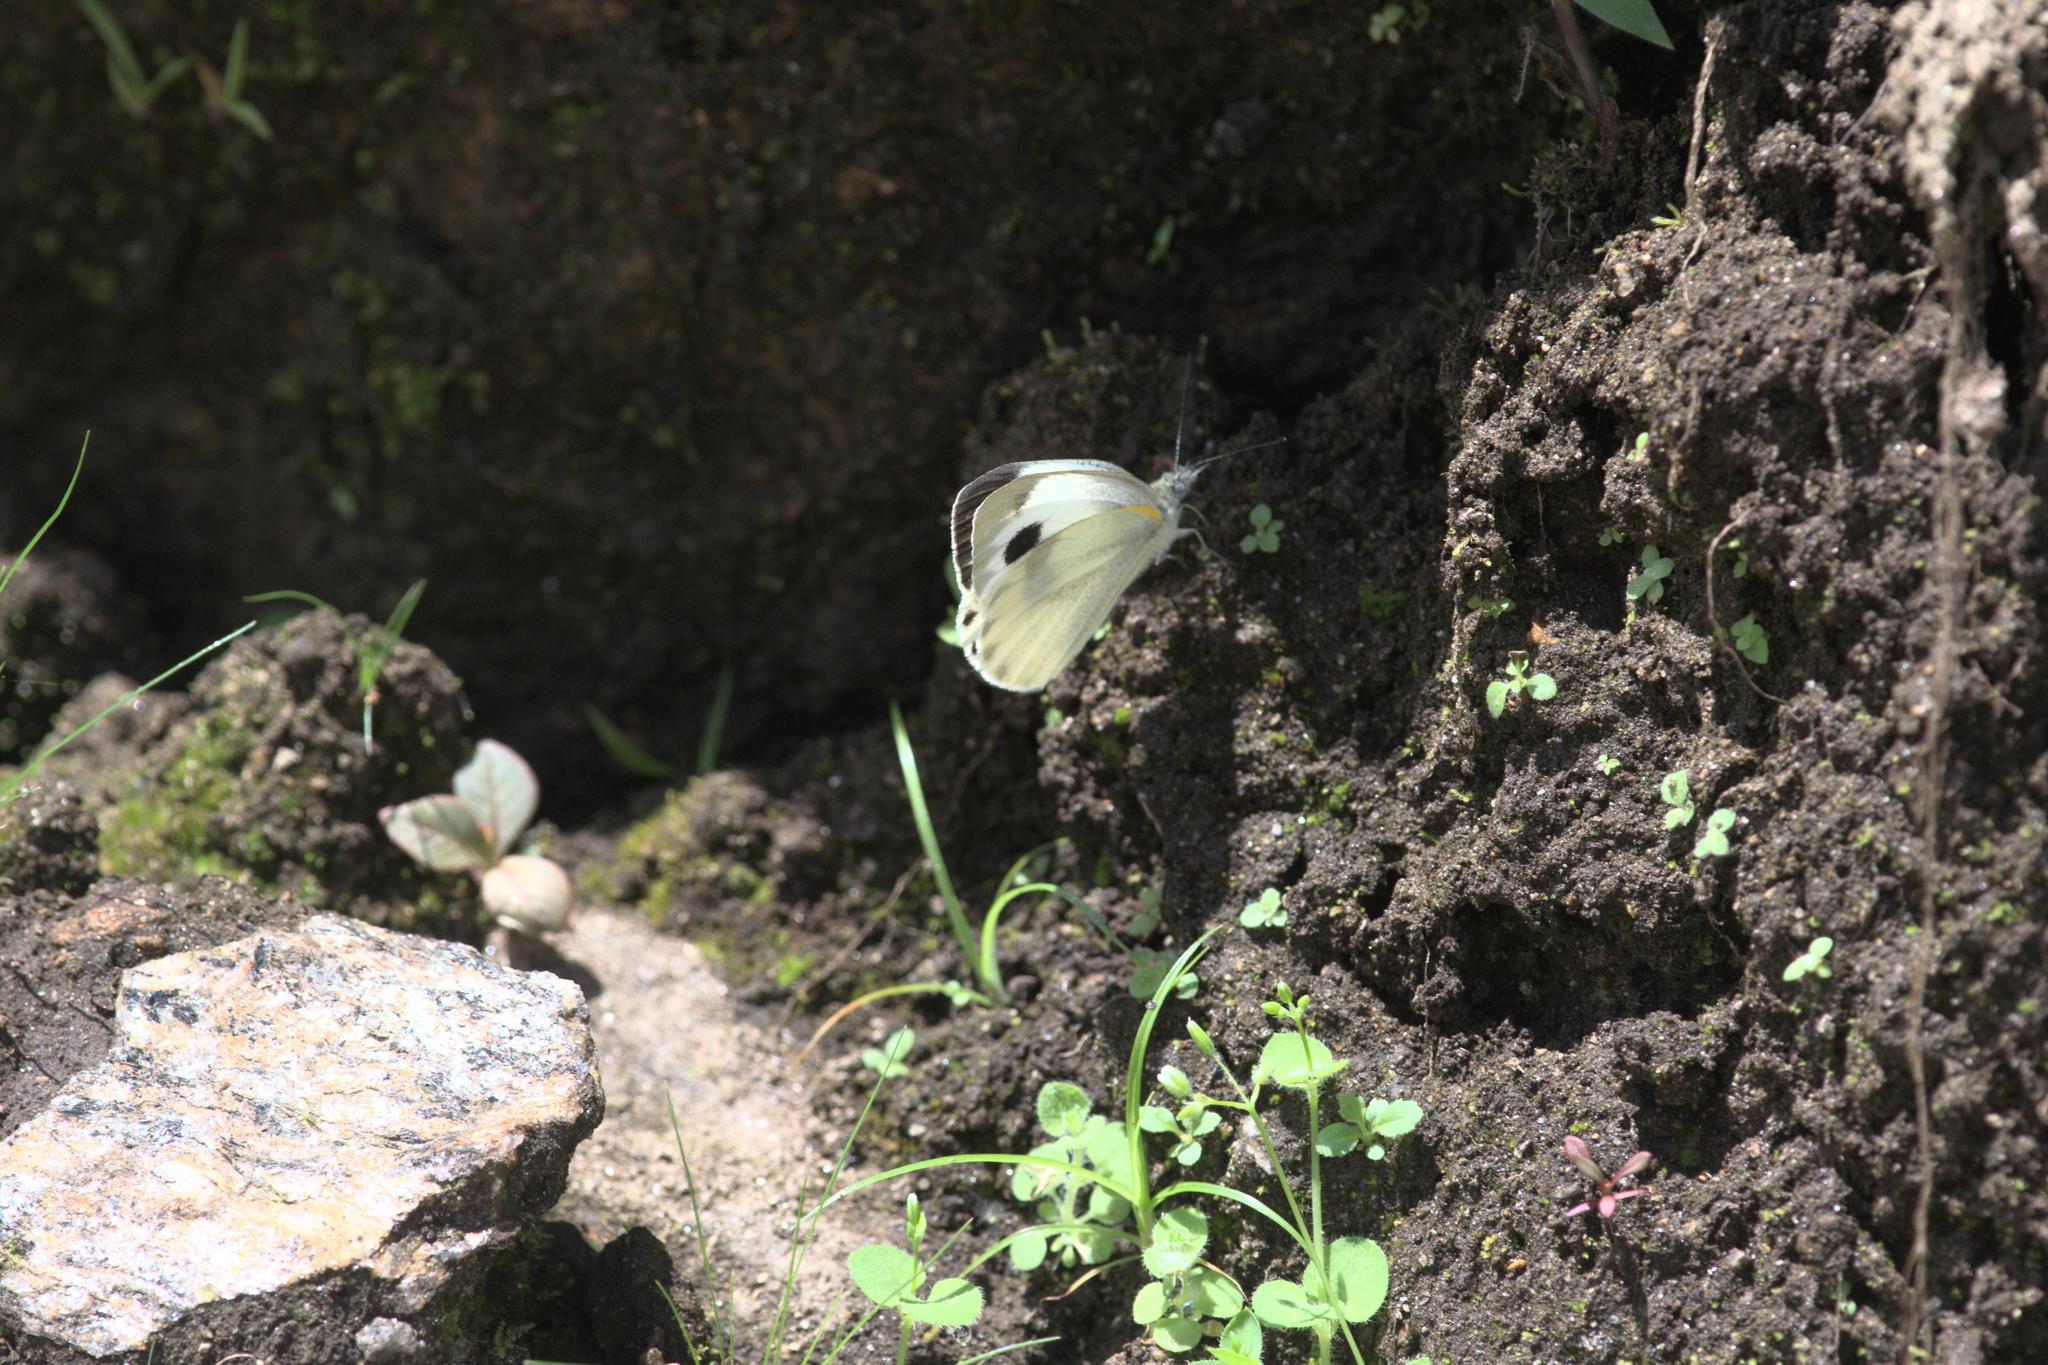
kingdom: Animalia
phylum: Arthropoda
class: Insecta
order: Lepidoptera
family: Pieridae
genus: Pieris
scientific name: Pieris canidia
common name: Indian cabbage white
